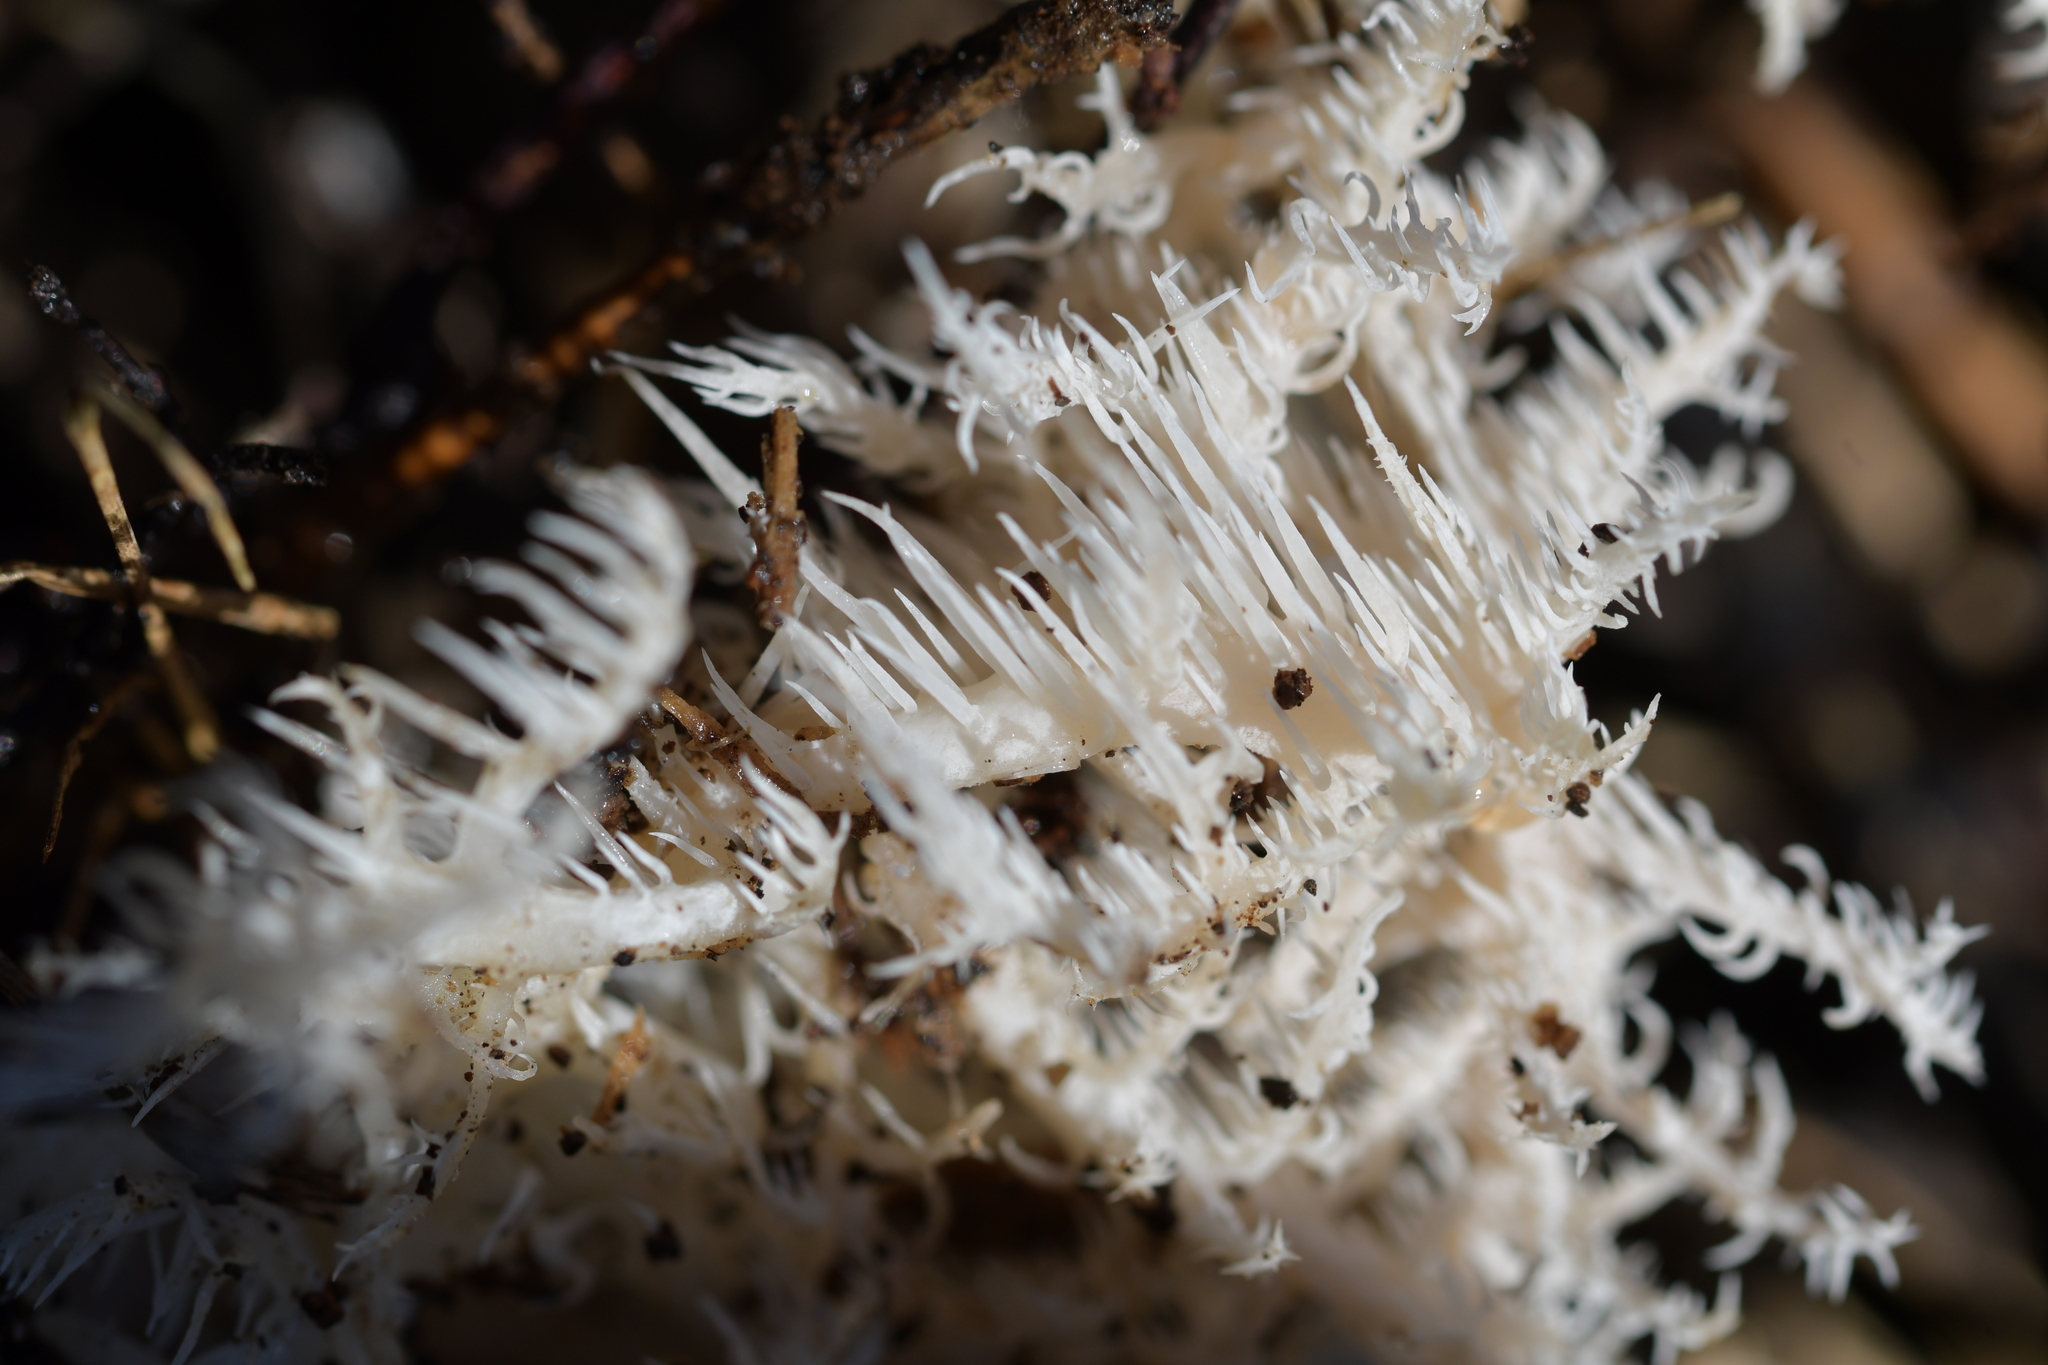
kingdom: Fungi
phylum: Basidiomycota
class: Agaricomycetes
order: Russulales
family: Hericiaceae
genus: Hericium
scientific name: Hericium novae-zealandiae
